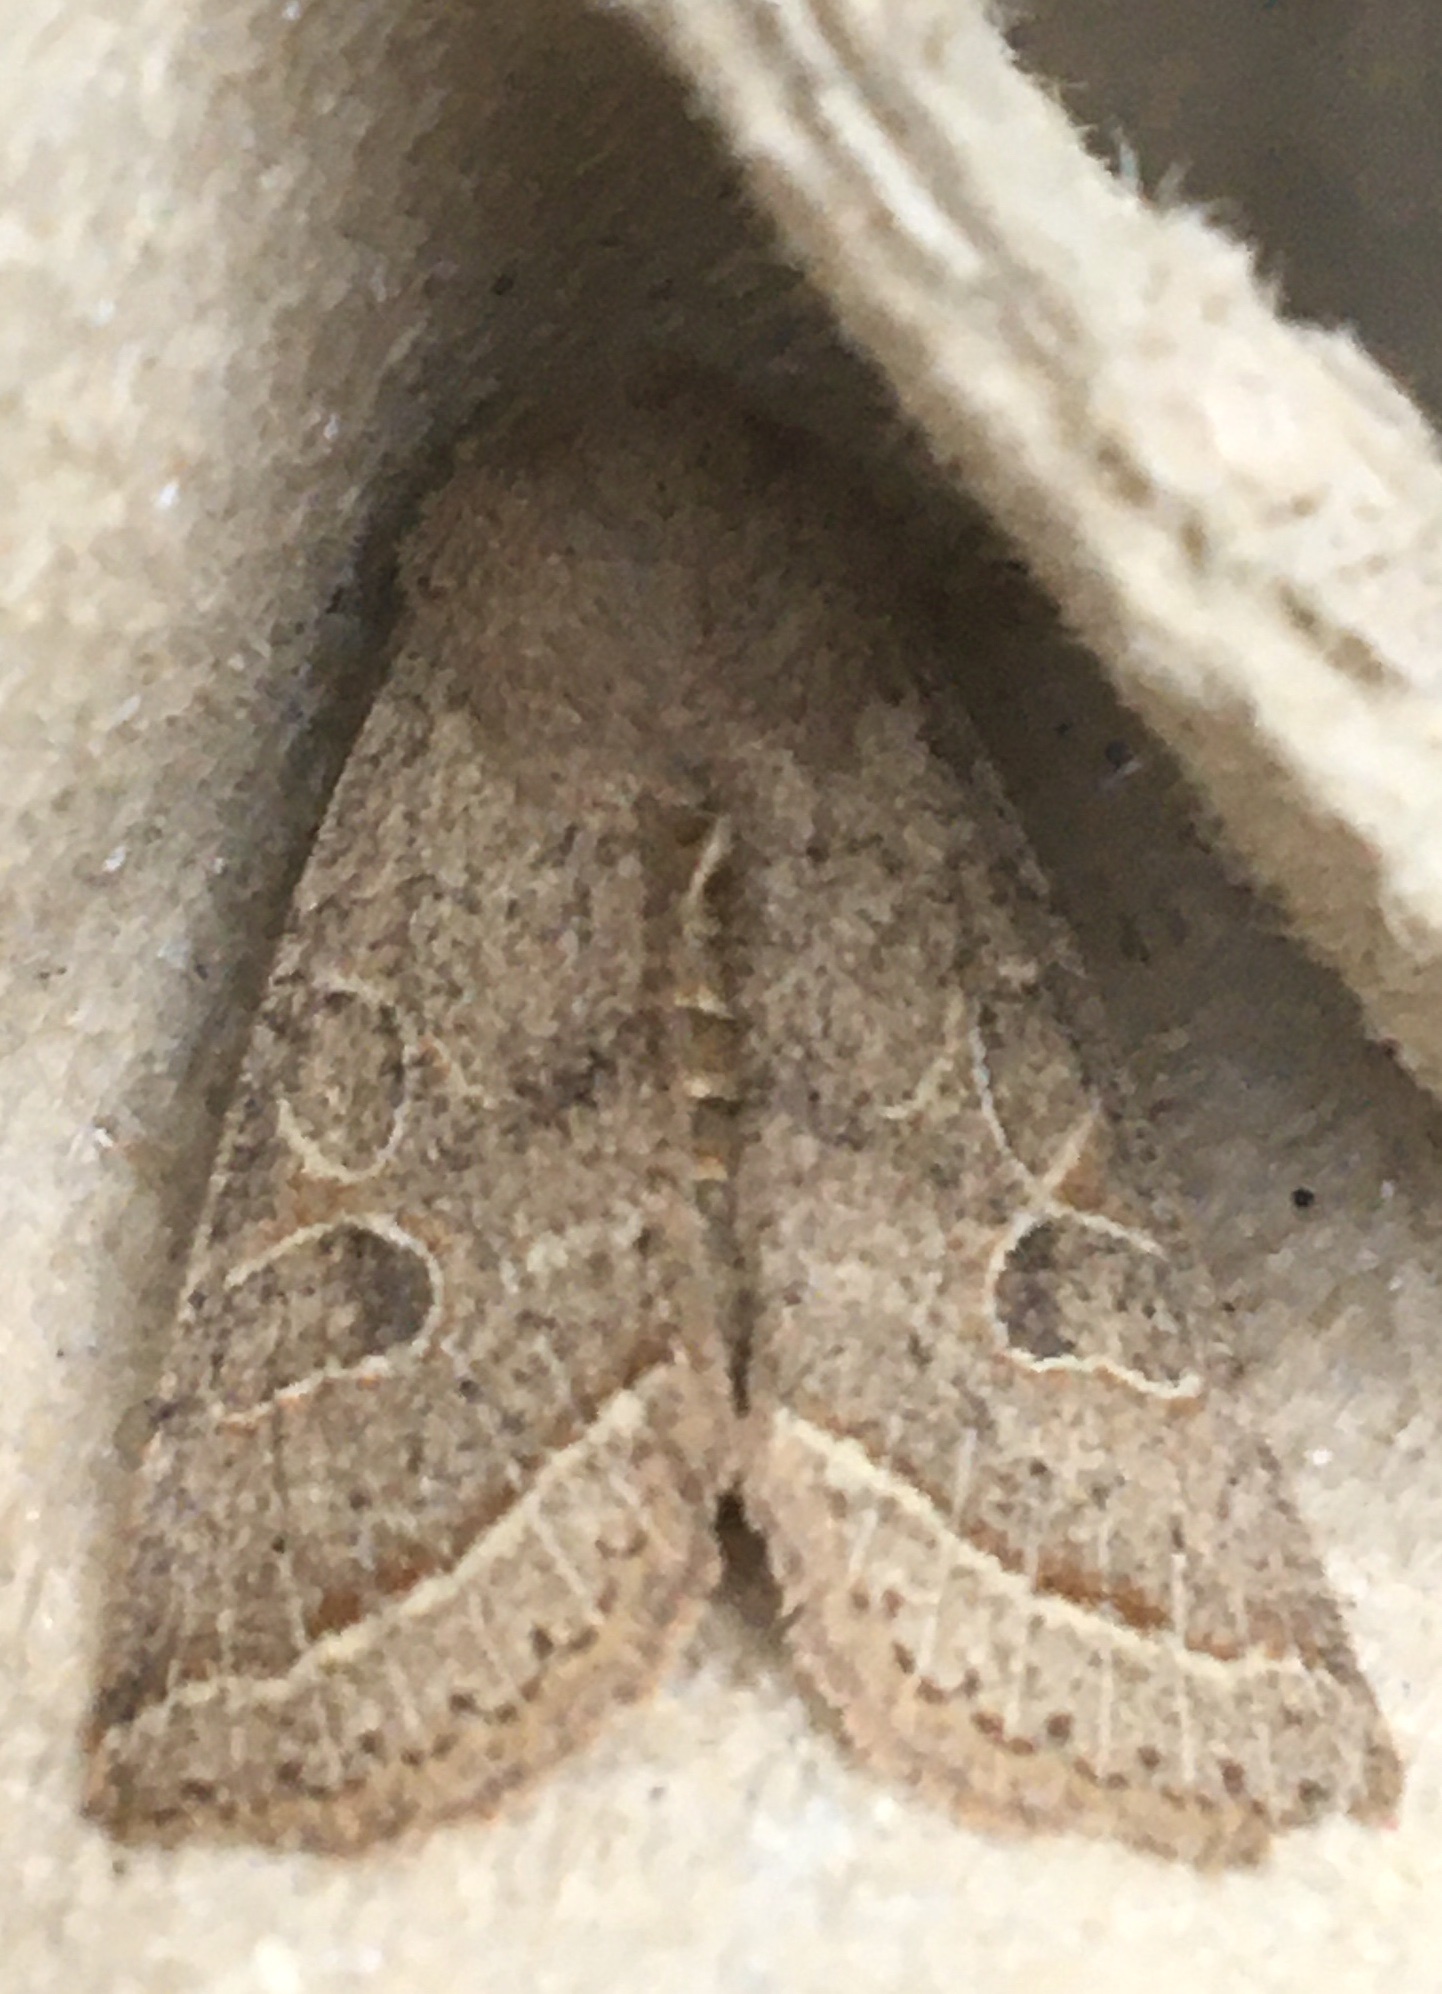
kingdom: Animalia
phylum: Arthropoda
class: Insecta
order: Lepidoptera
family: Noctuidae
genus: Orthosia
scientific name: Orthosia cerasi
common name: Common quaker
